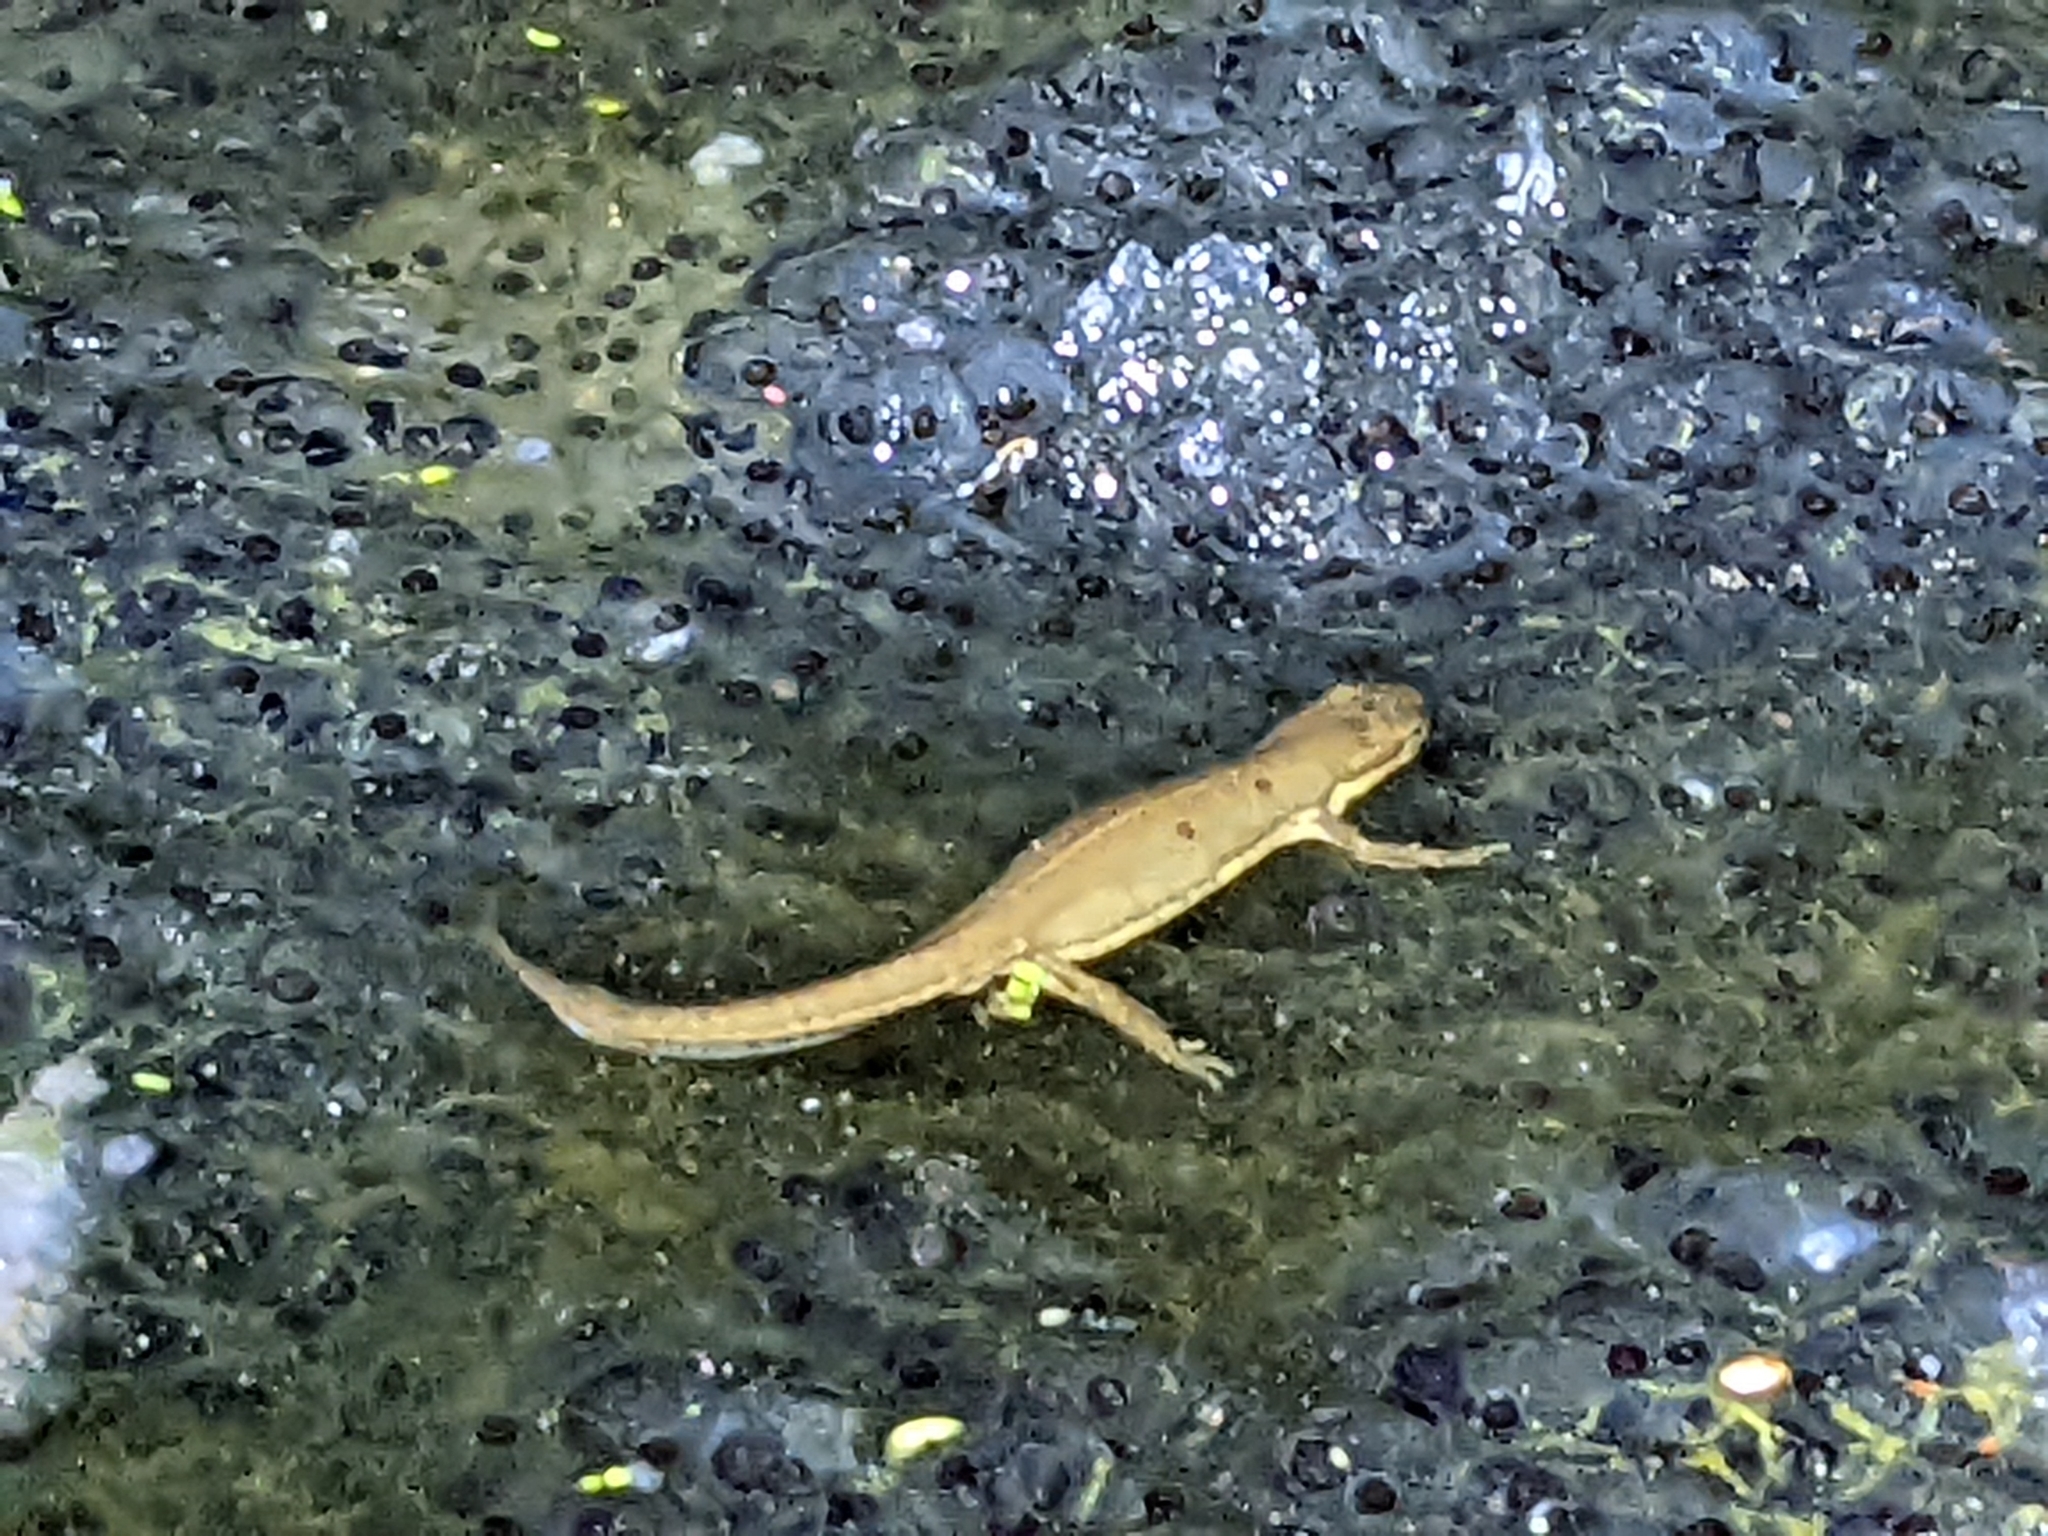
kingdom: Animalia
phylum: Chordata
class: Amphibia
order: Caudata
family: Salamandridae
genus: Notophthalmus
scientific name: Notophthalmus viridescens
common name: Eastern newt
